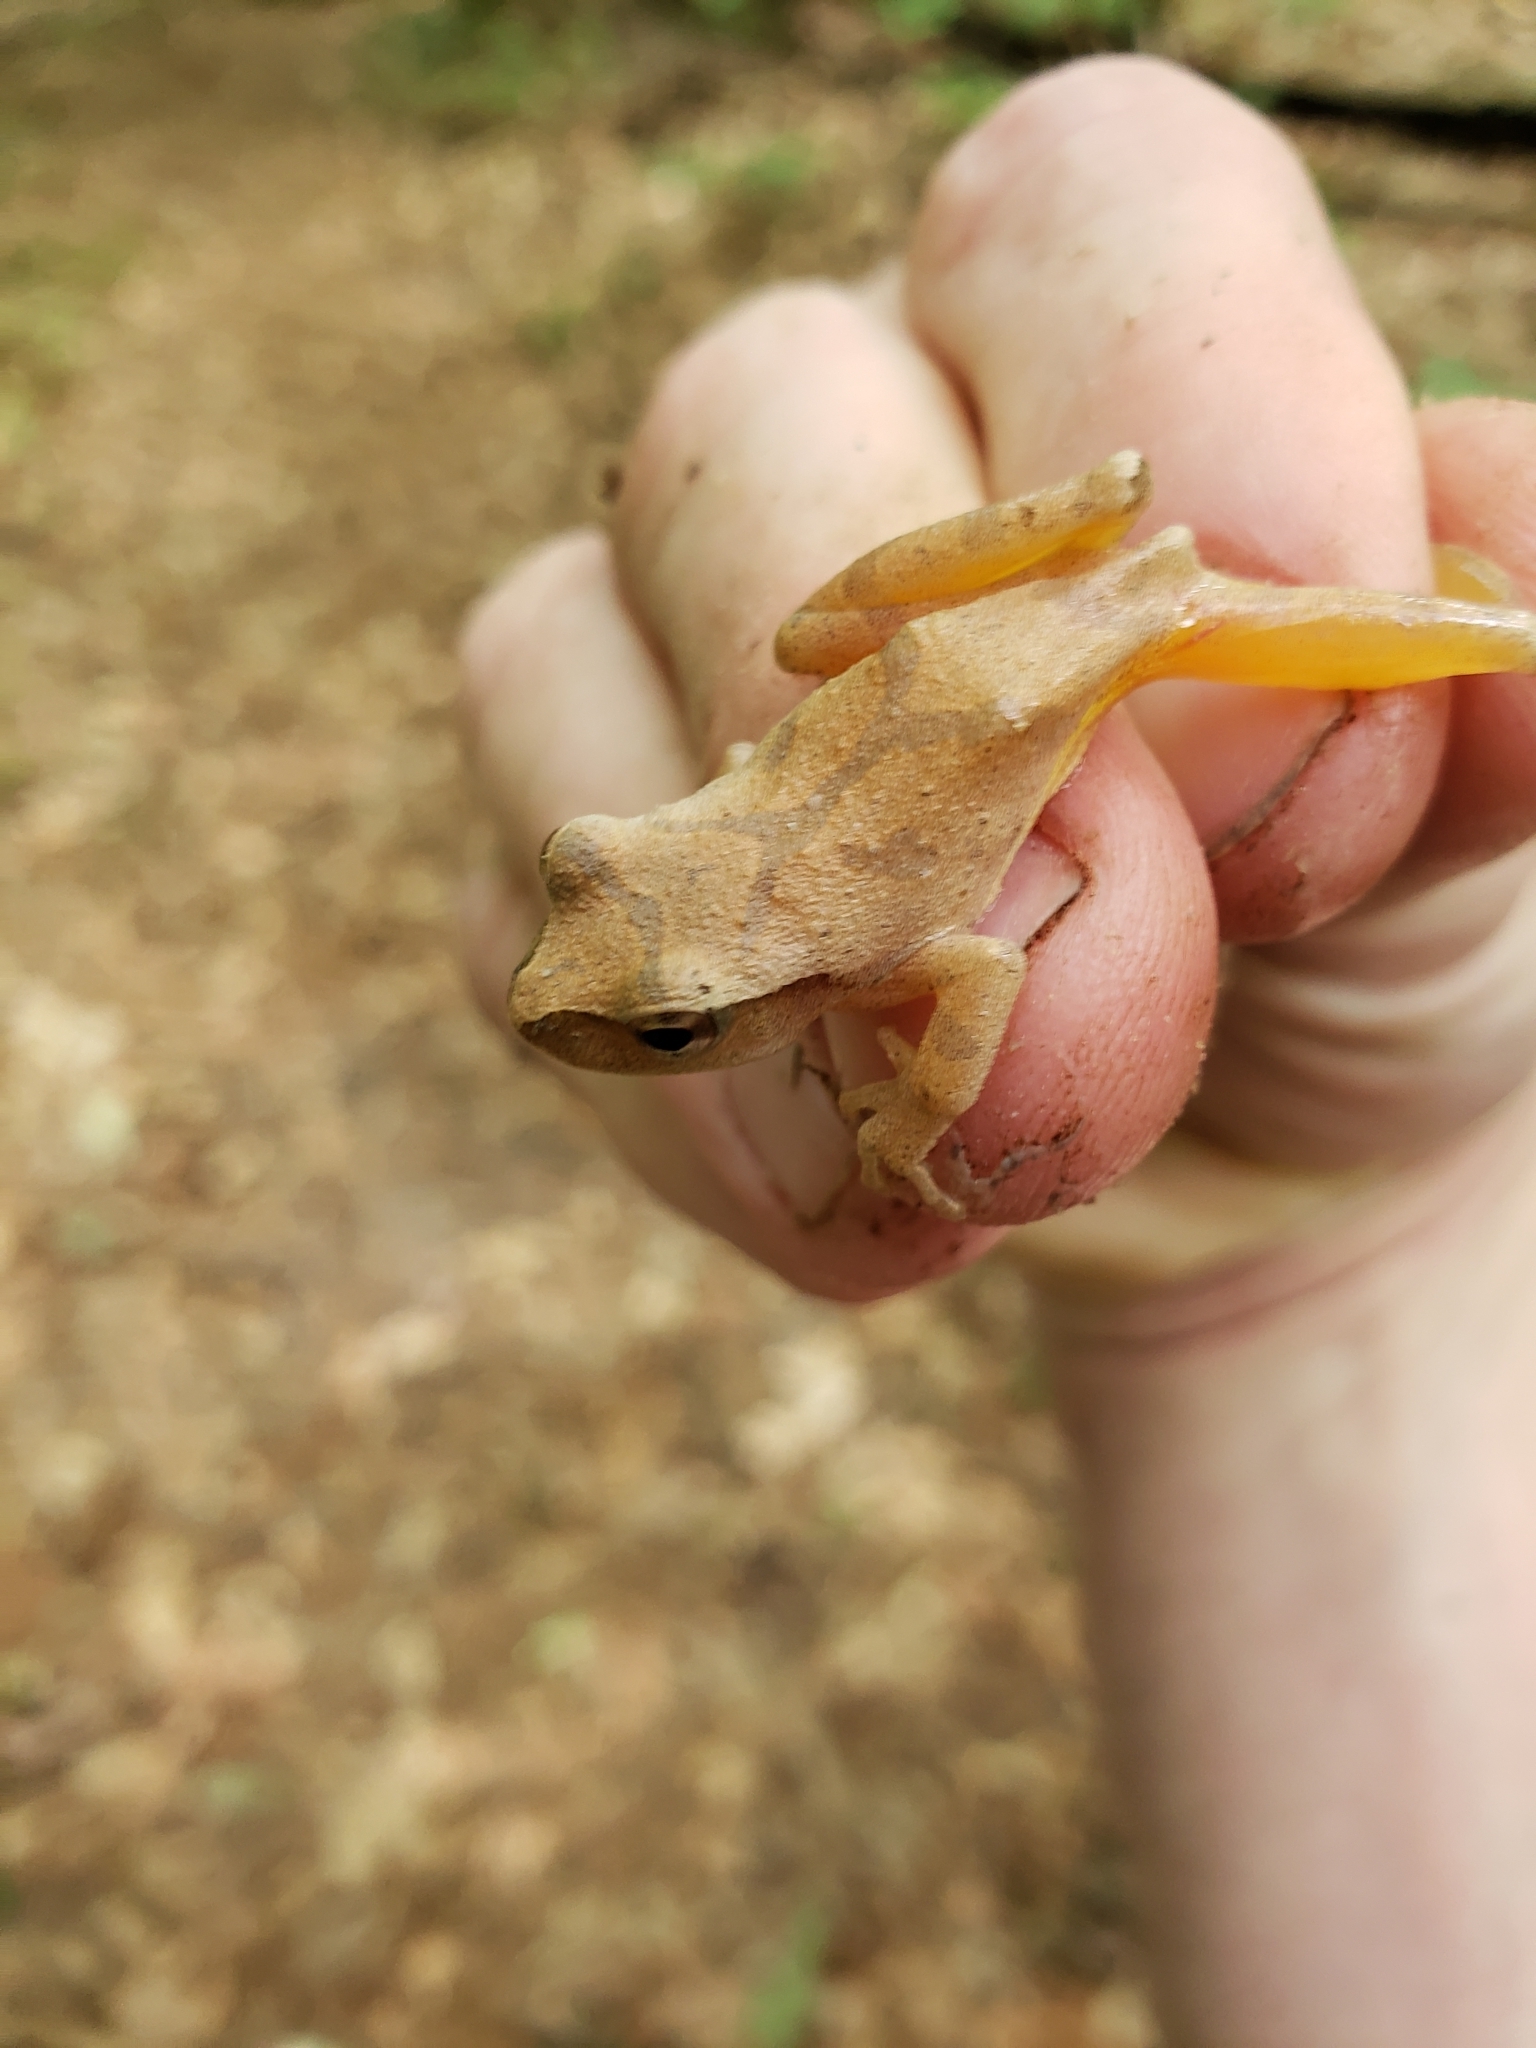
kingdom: Animalia
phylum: Chordata
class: Amphibia
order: Anura
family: Hylidae
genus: Pseudacris
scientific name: Pseudacris crucifer
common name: Spring peeper
